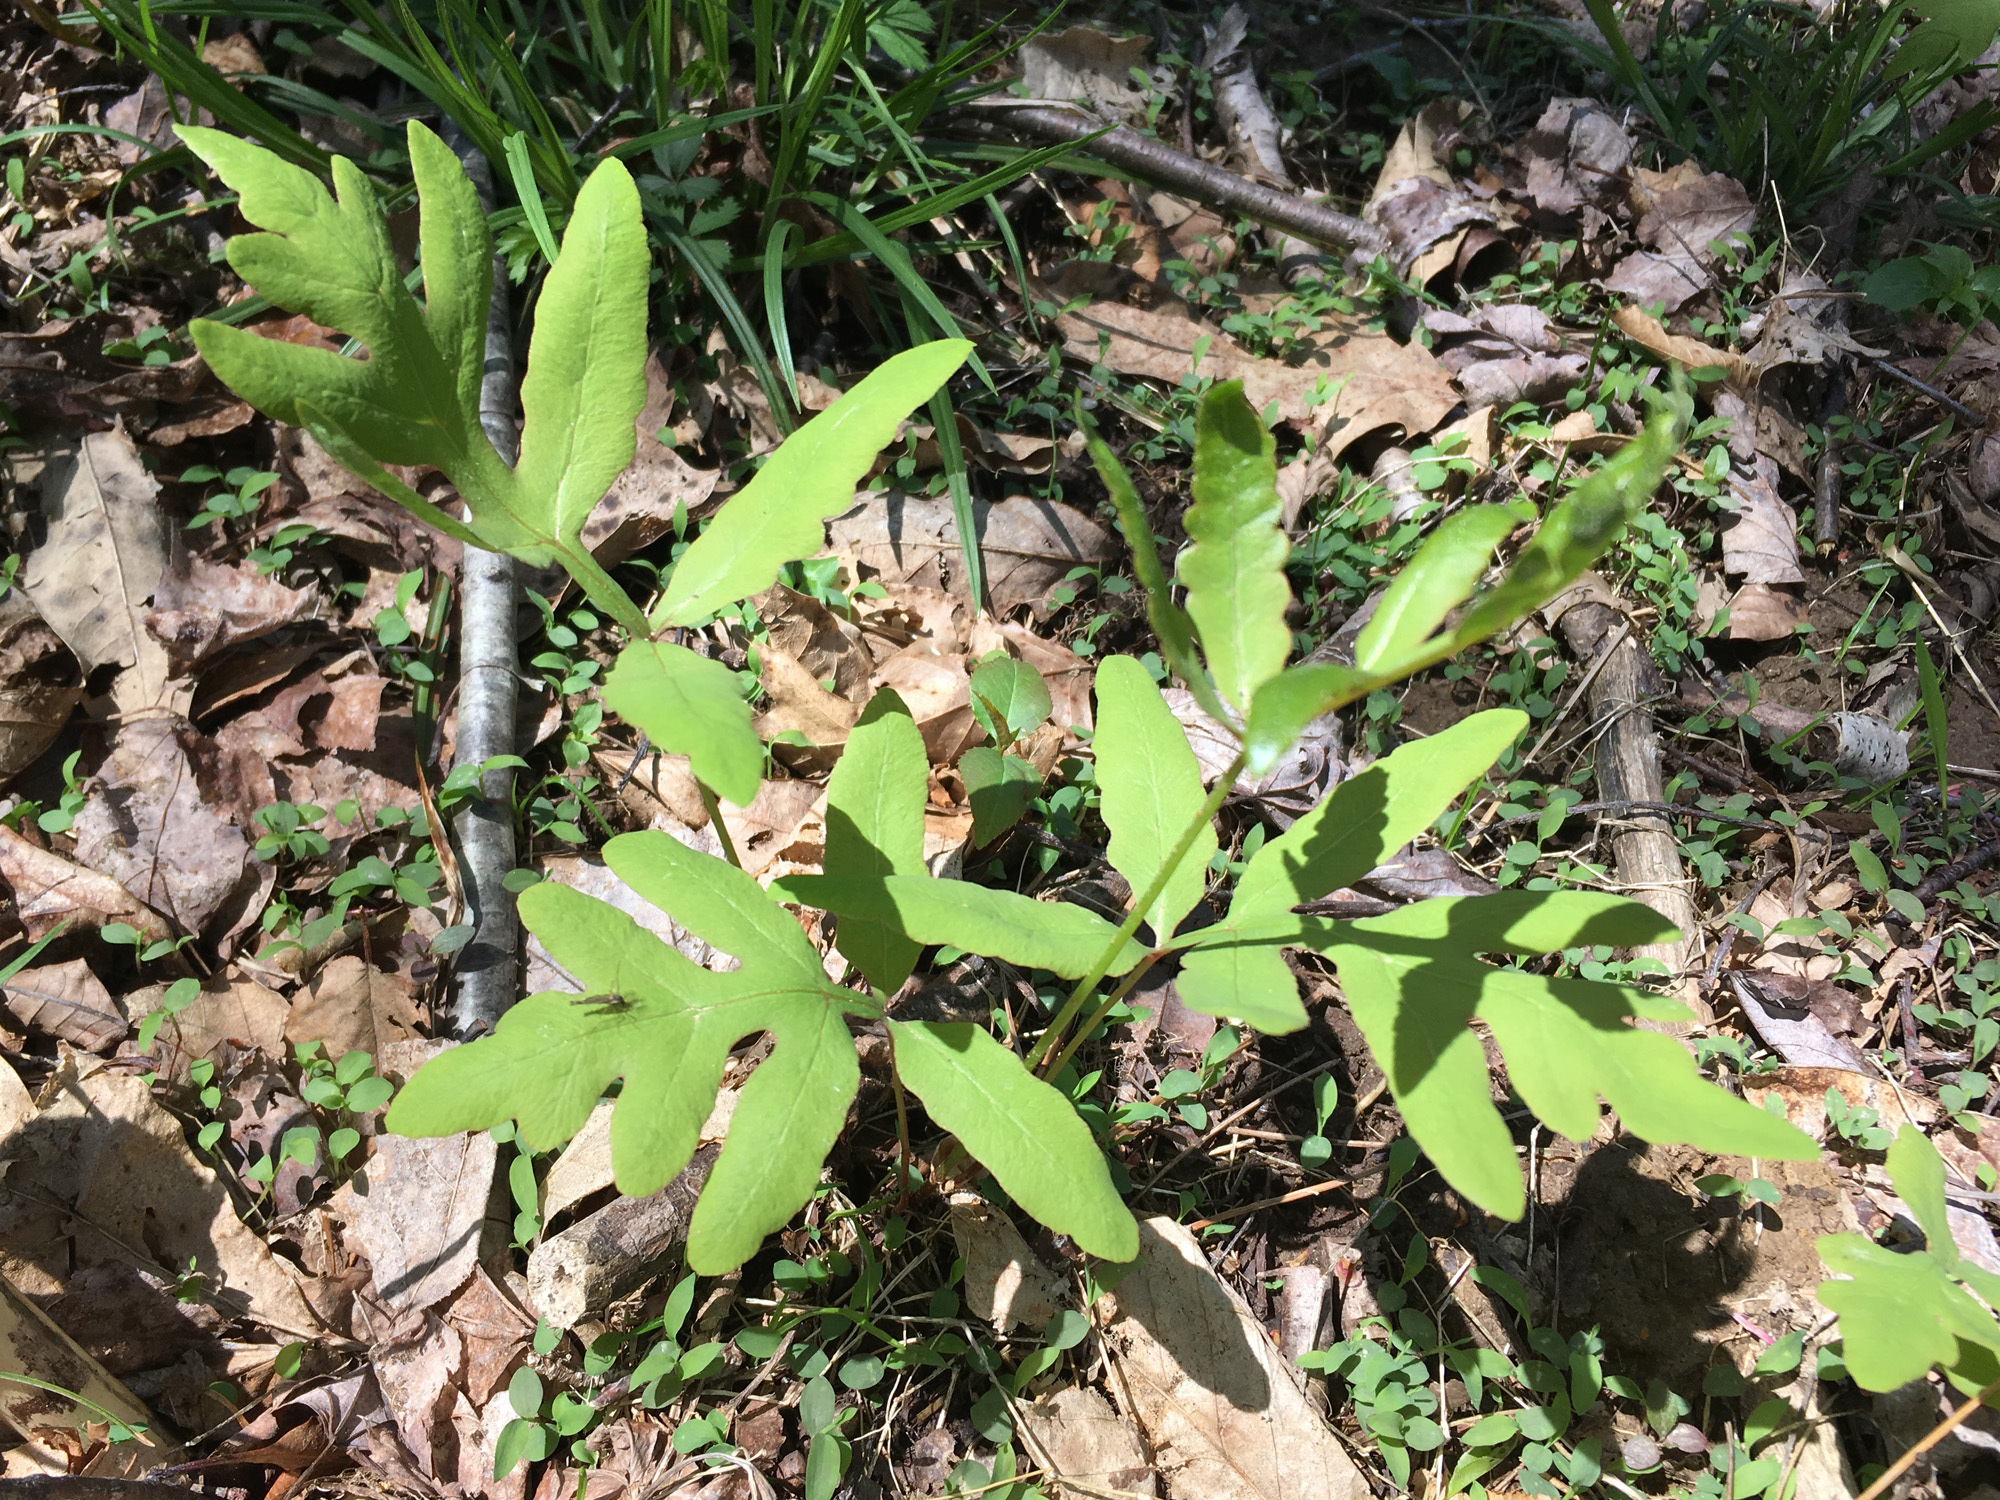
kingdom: Plantae
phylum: Tracheophyta
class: Polypodiopsida
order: Polypodiales
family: Onocleaceae
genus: Onoclea
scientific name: Onoclea sensibilis
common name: Sensitive fern
